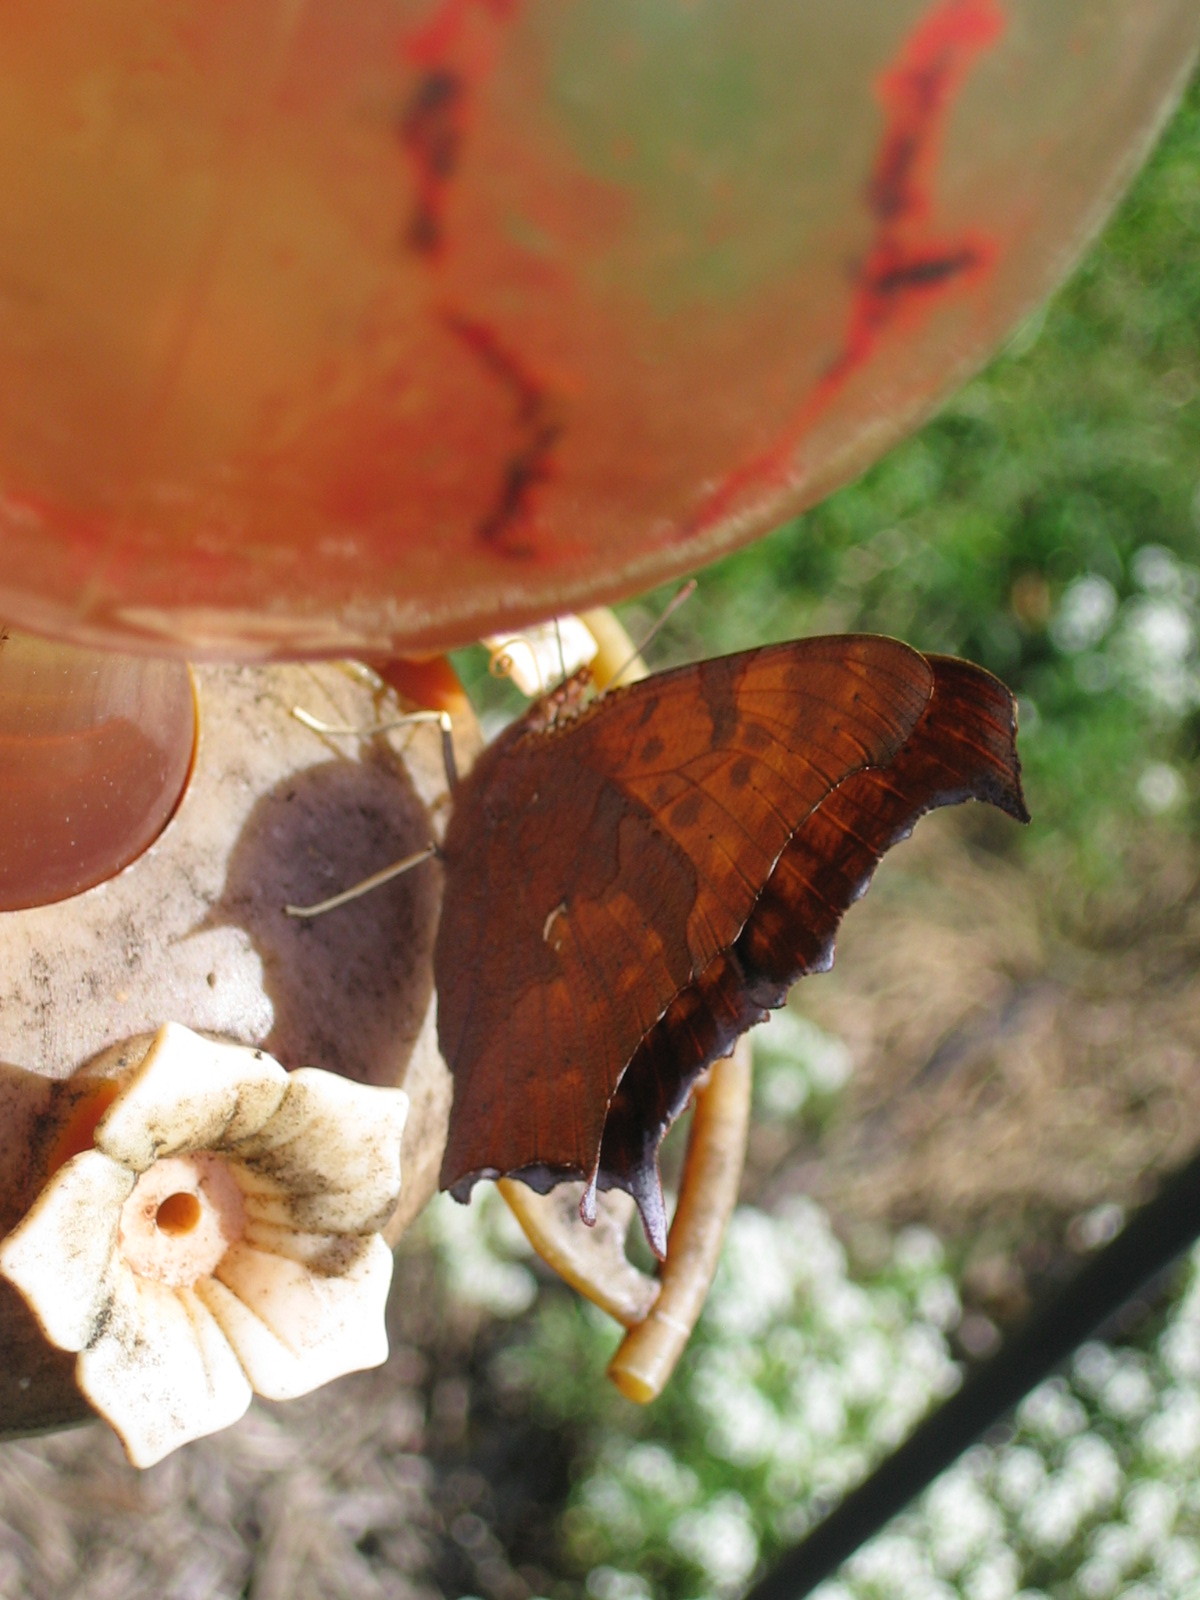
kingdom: Animalia
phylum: Arthropoda
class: Insecta
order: Lepidoptera
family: Nymphalidae
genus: Polygonia
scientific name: Polygonia interrogationis
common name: Question mark
